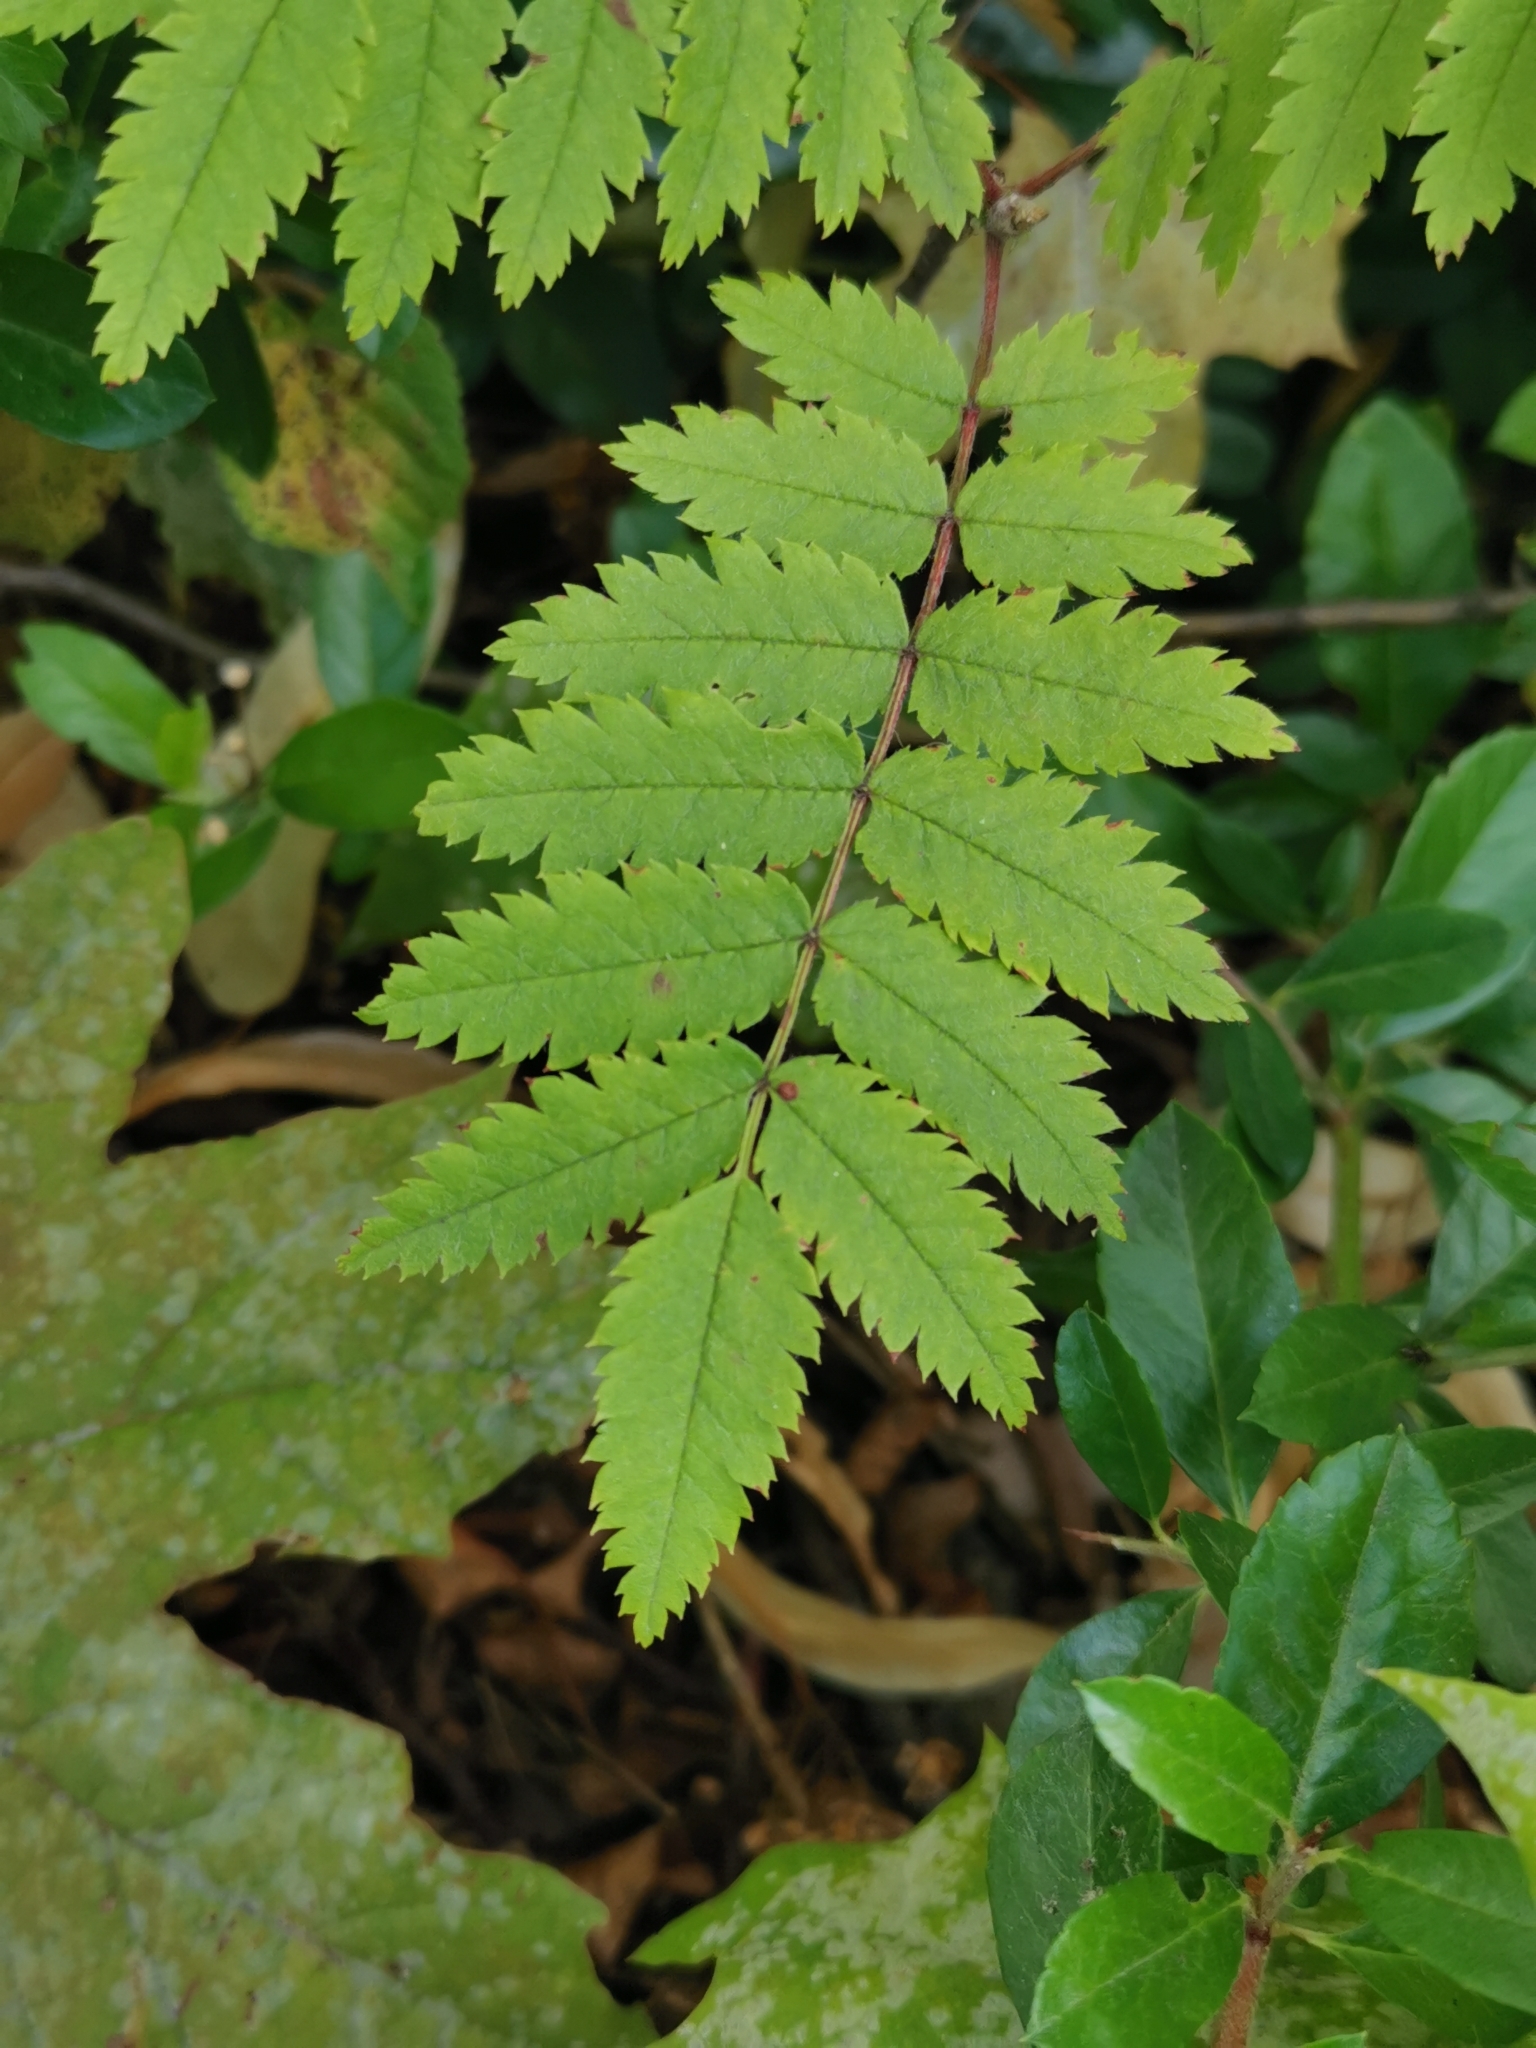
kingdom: Plantae
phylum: Tracheophyta
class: Magnoliopsida
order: Rosales
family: Rosaceae
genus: Sorbus
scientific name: Sorbus aucuparia
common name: Rowan
